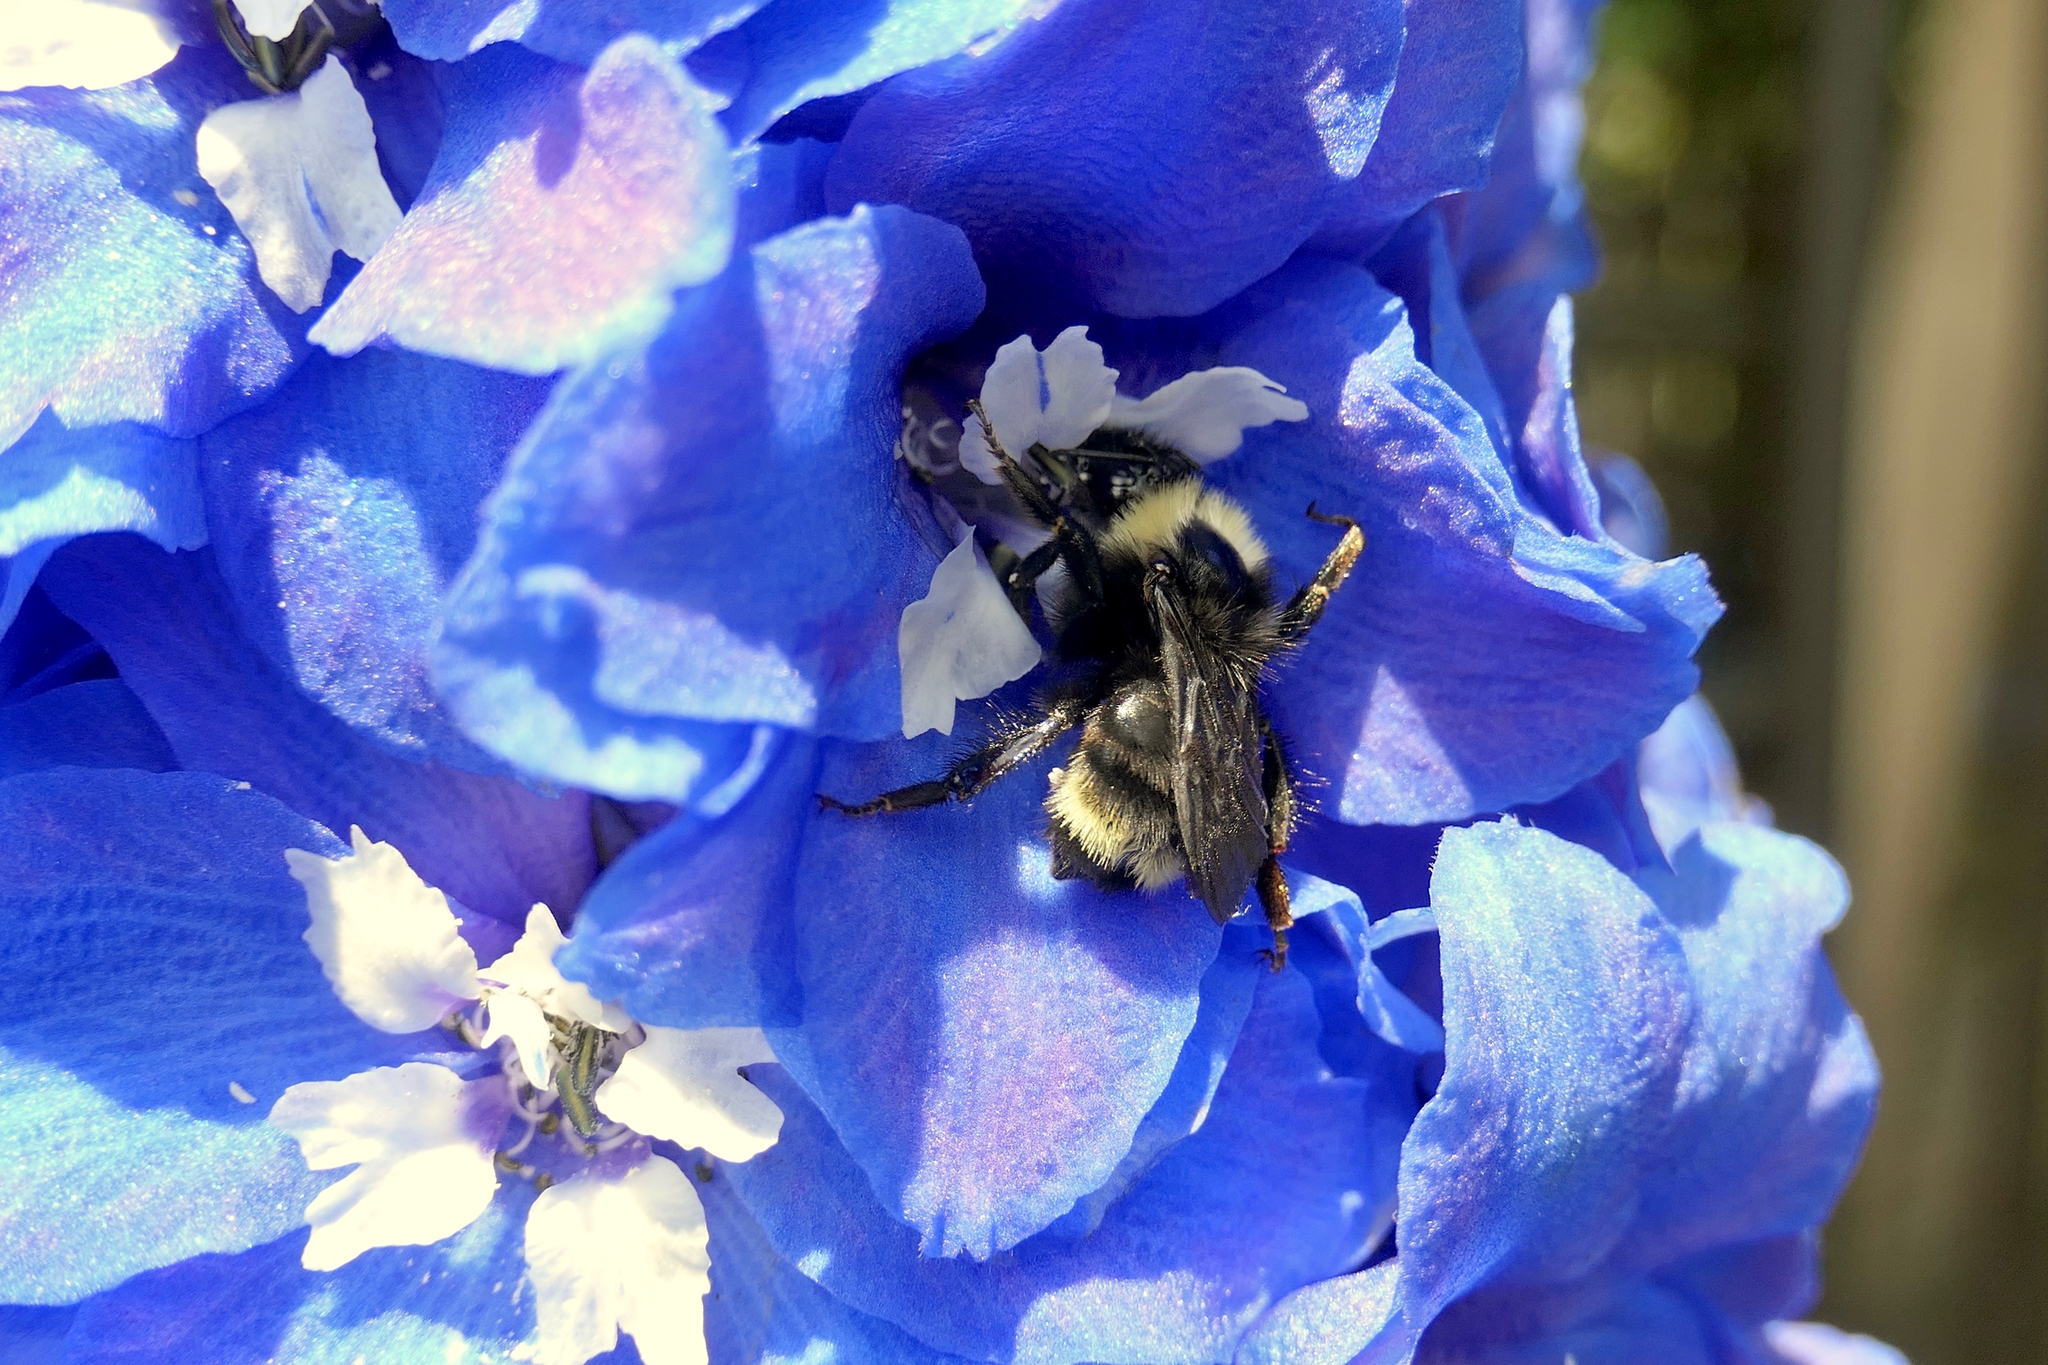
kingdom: Animalia
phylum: Arthropoda
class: Insecta
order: Hymenoptera
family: Apidae
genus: Bombus
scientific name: Bombus californicus
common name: California bumble bee
